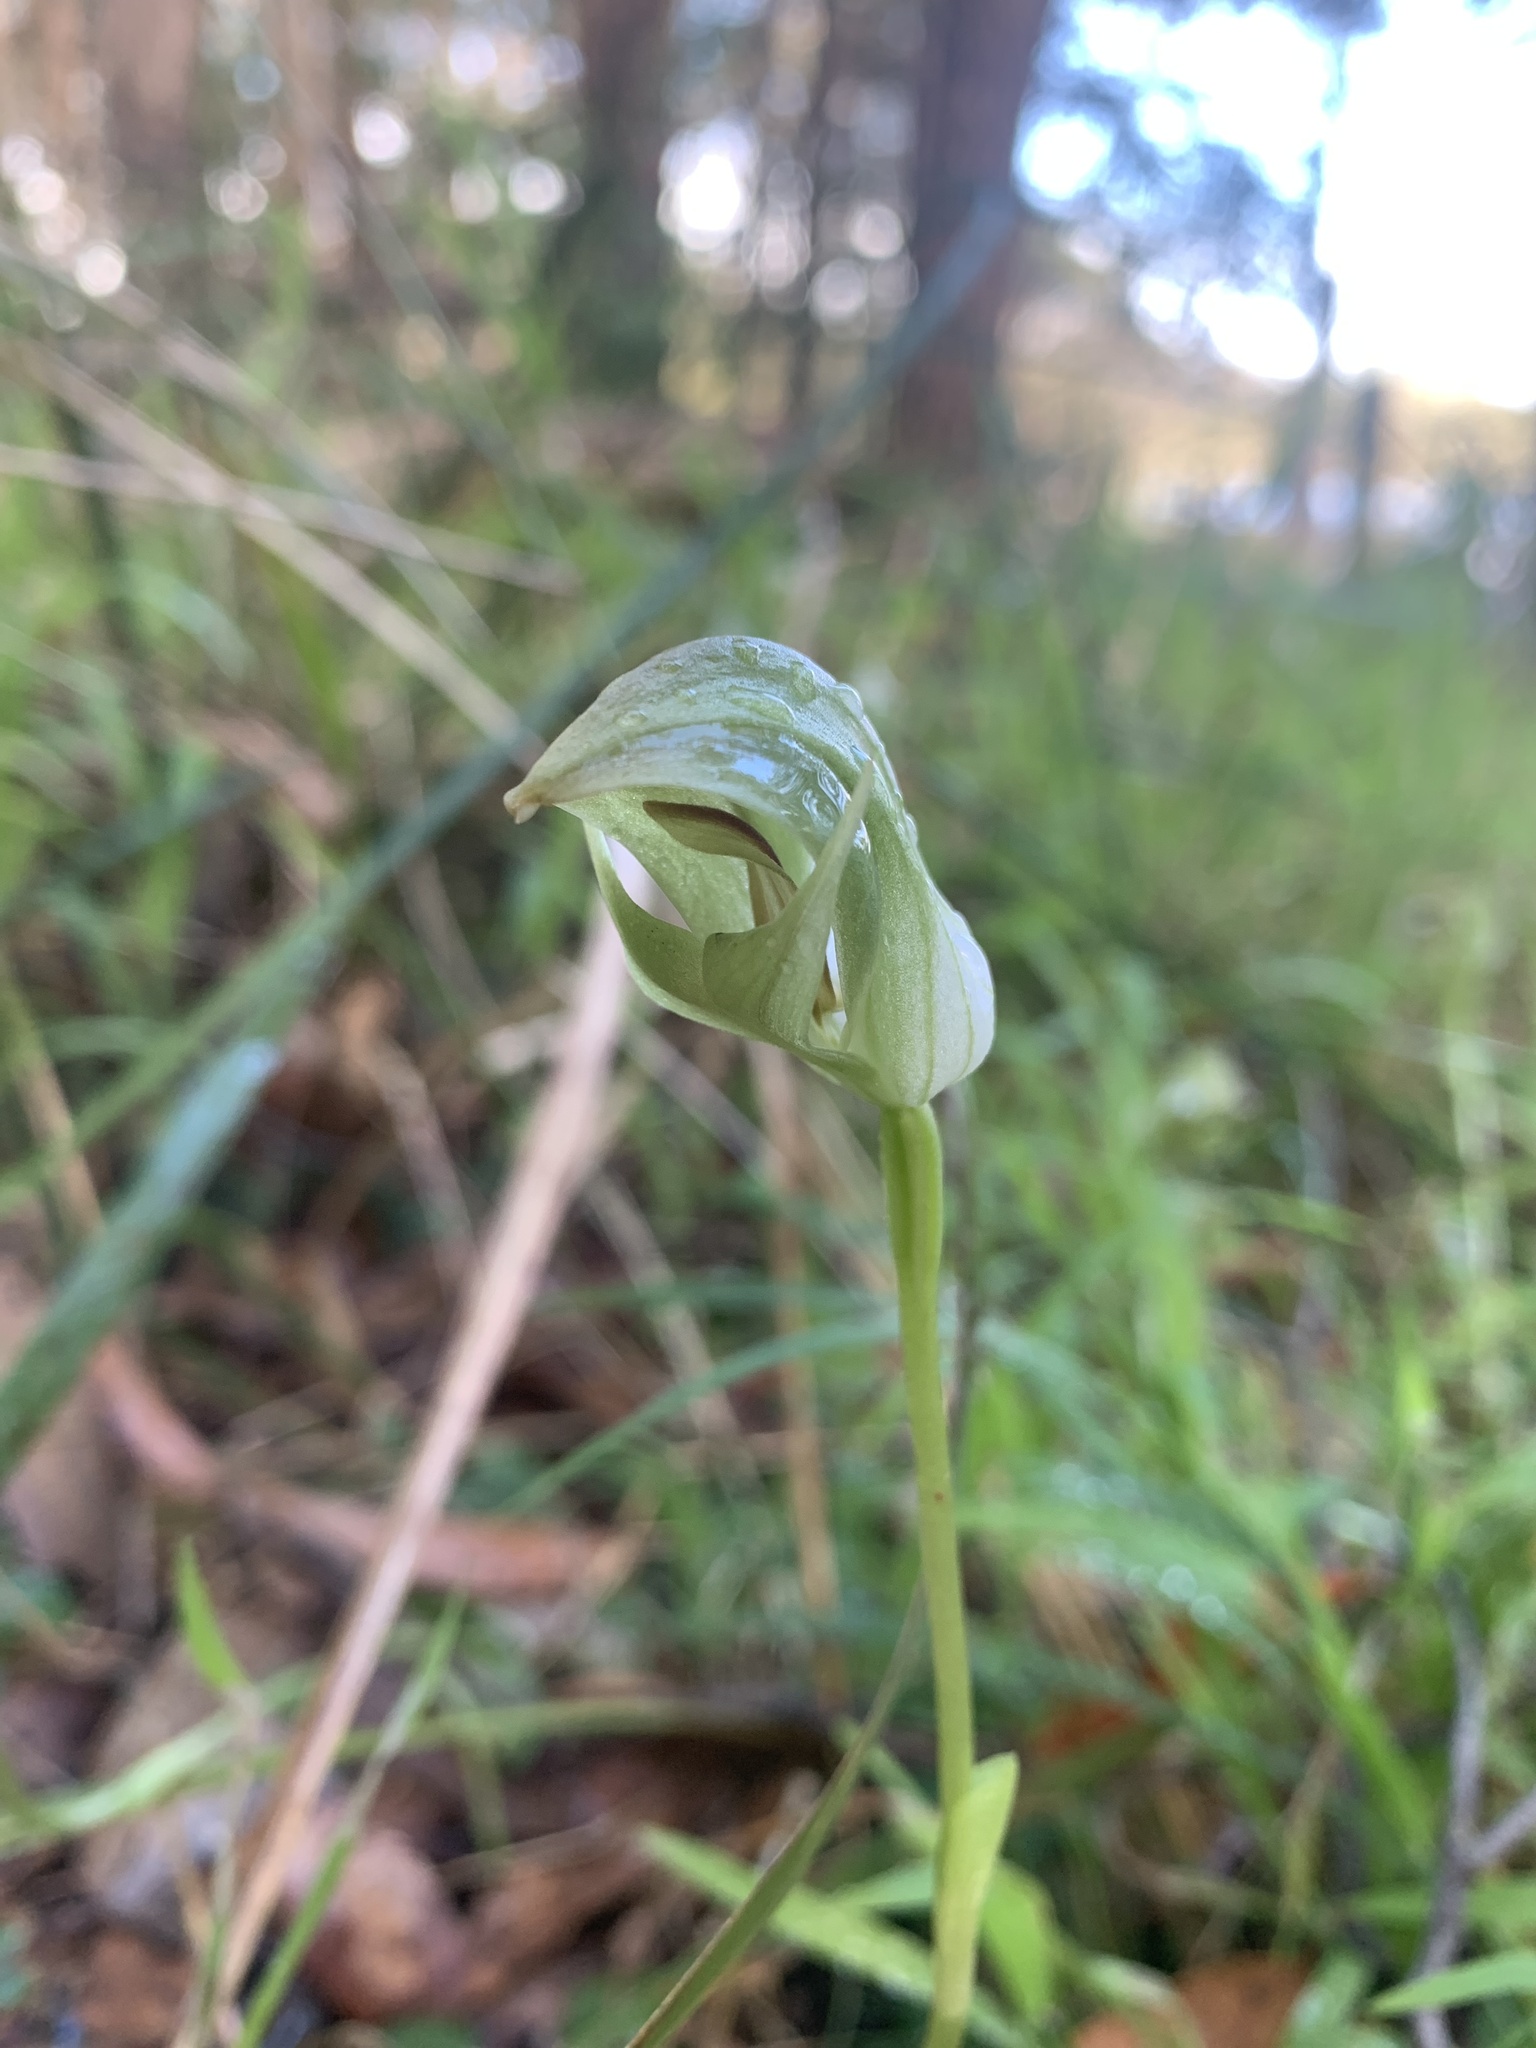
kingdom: Plantae
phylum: Tracheophyta
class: Liliopsida
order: Asparagales
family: Orchidaceae
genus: Pterostylis
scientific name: Pterostylis curta
